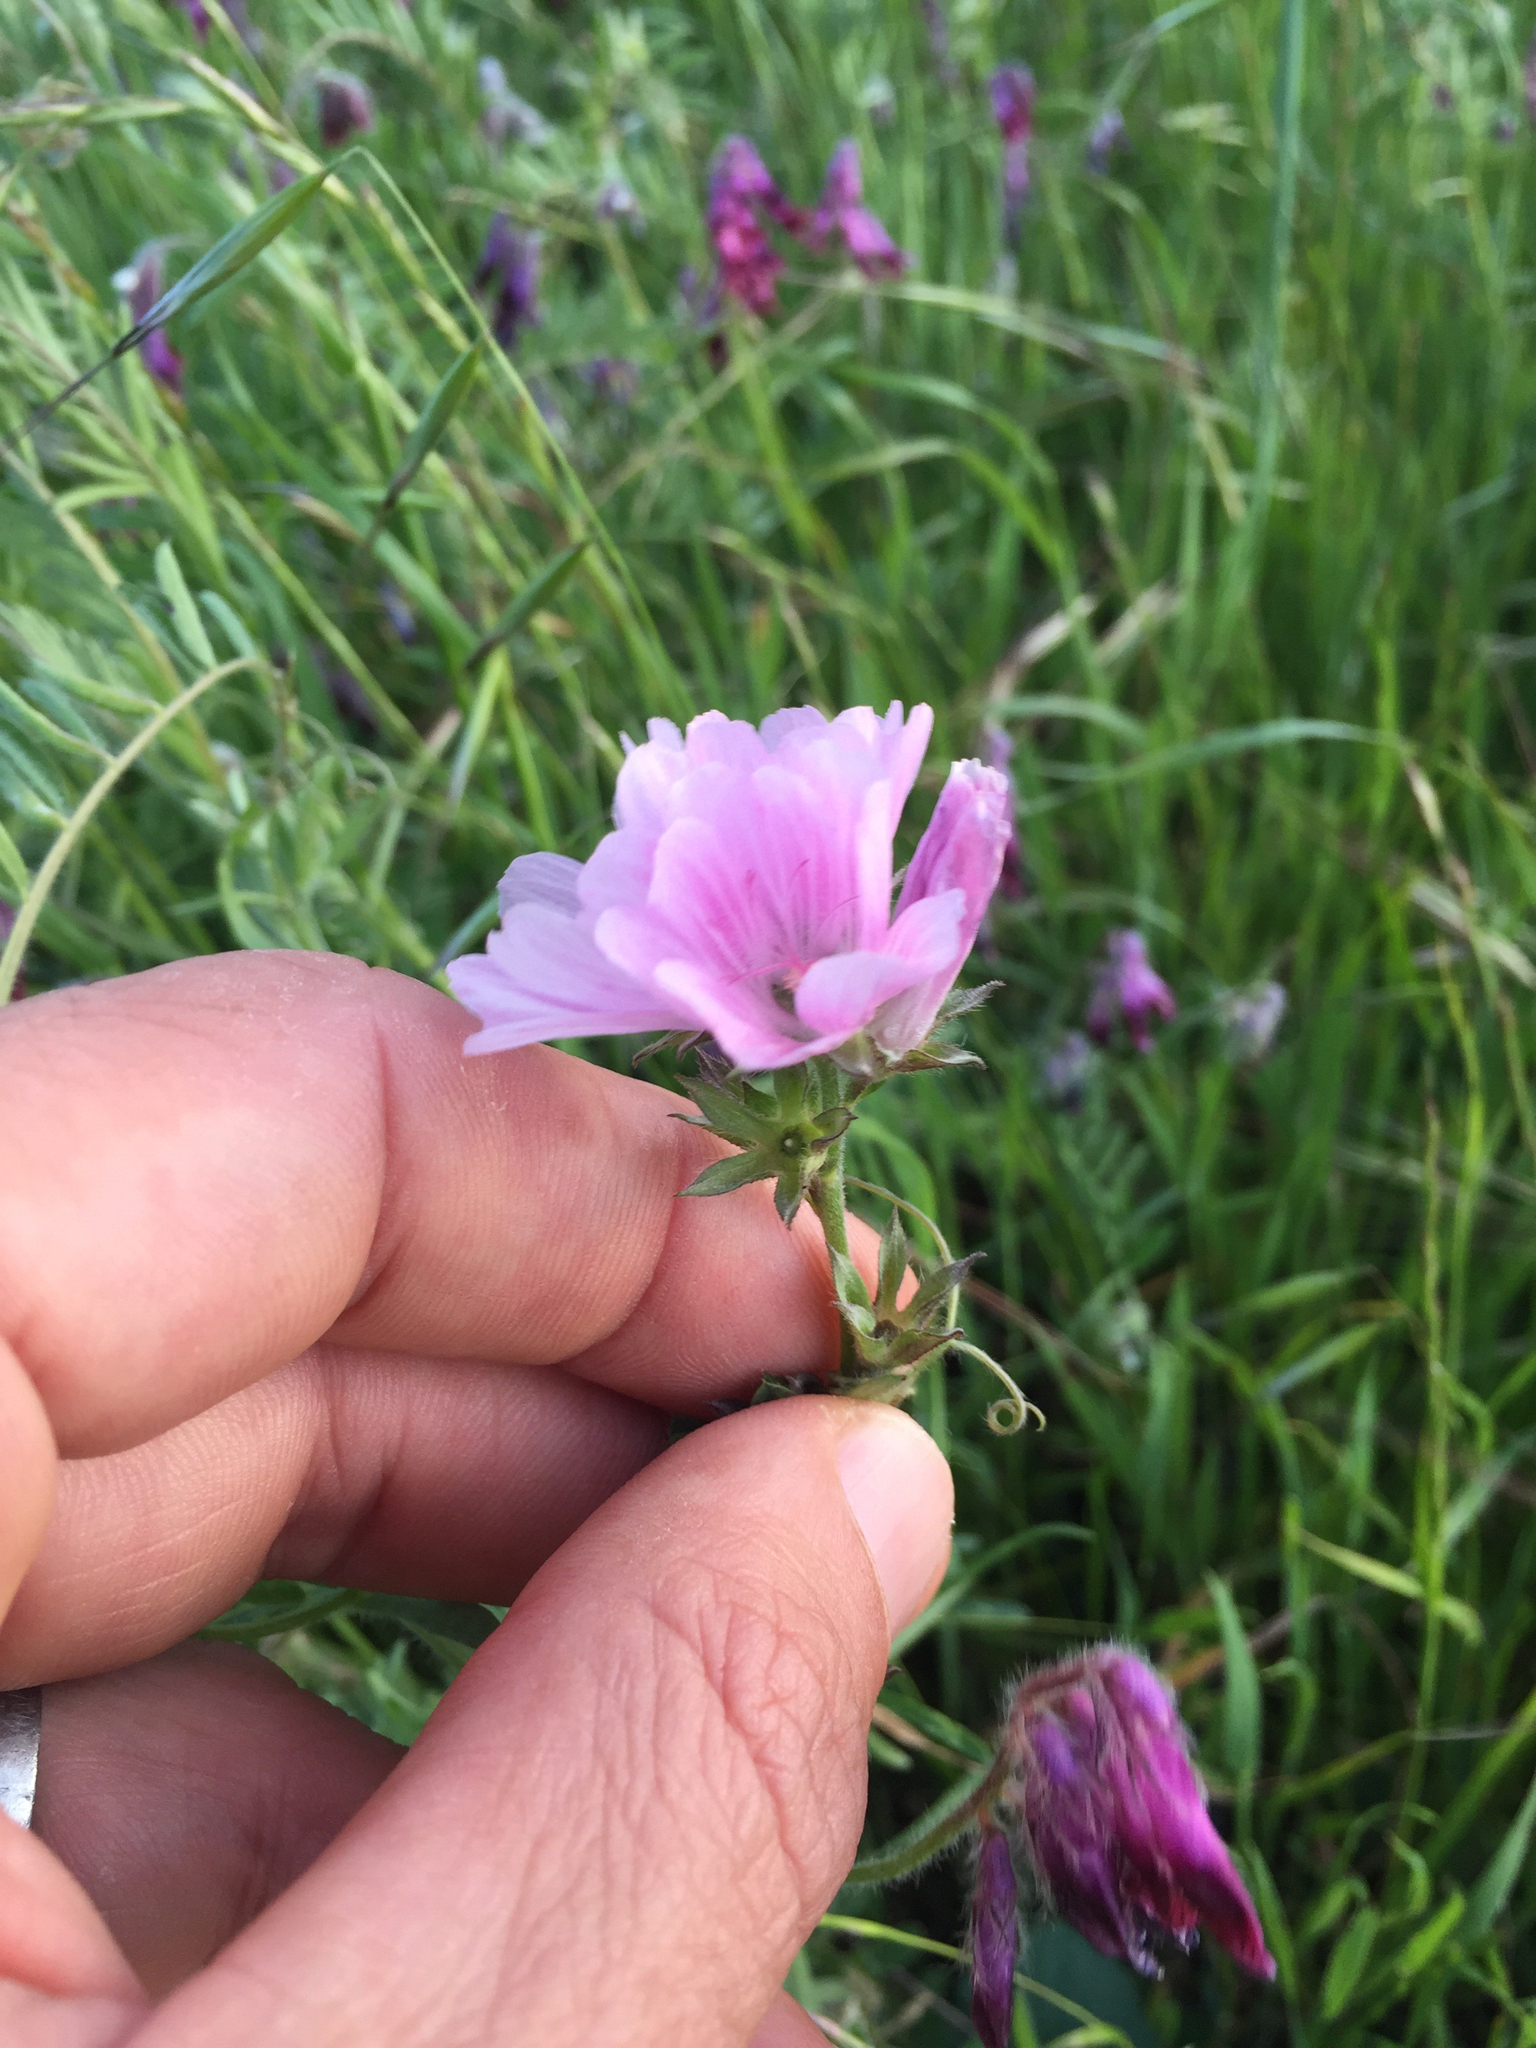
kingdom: Plantae
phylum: Tracheophyta
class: Magnoliopsida
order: Malvales
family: Malvaceae
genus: Sidalcea
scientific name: Sidalcea malviflora
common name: Greek mallow
